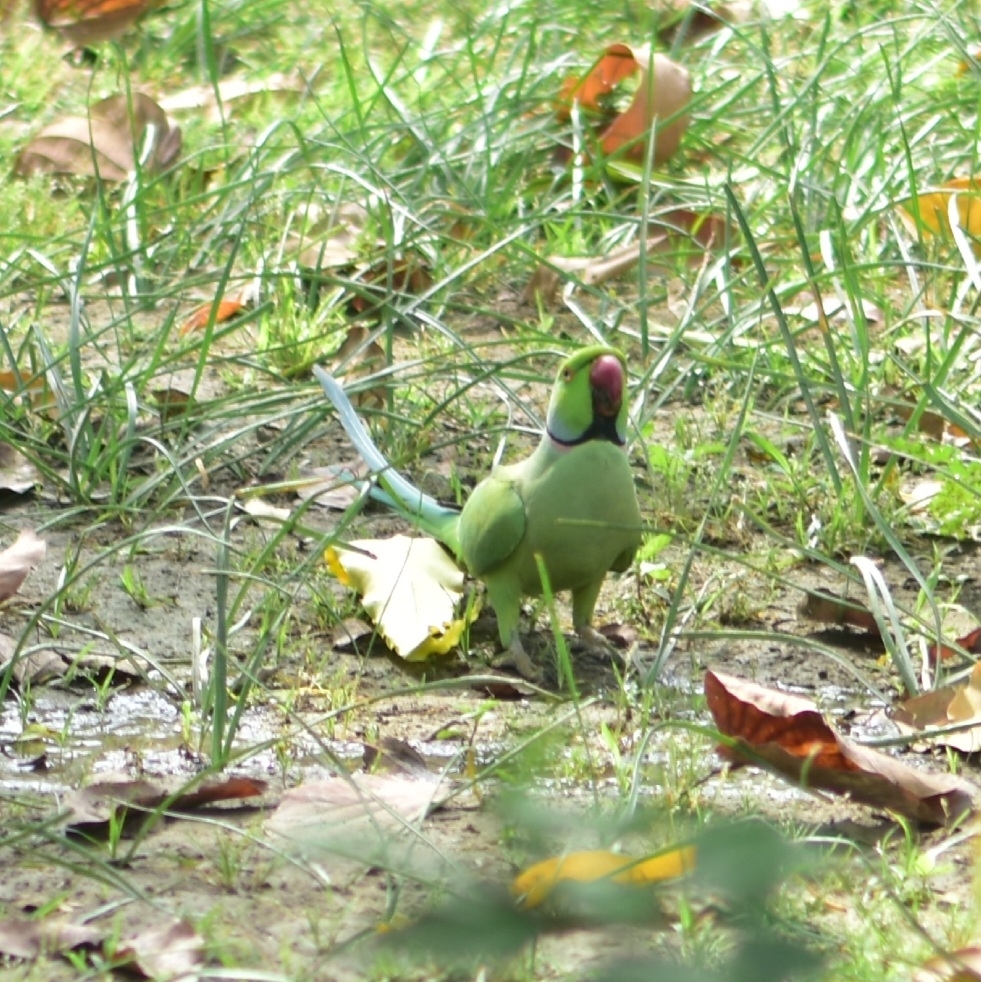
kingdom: Animalia
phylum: Chordata
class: Aves
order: Psittaciformes
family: Psittacidae
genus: Psittacula
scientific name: Psittacula krameri
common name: Rose-ringed parakeet
